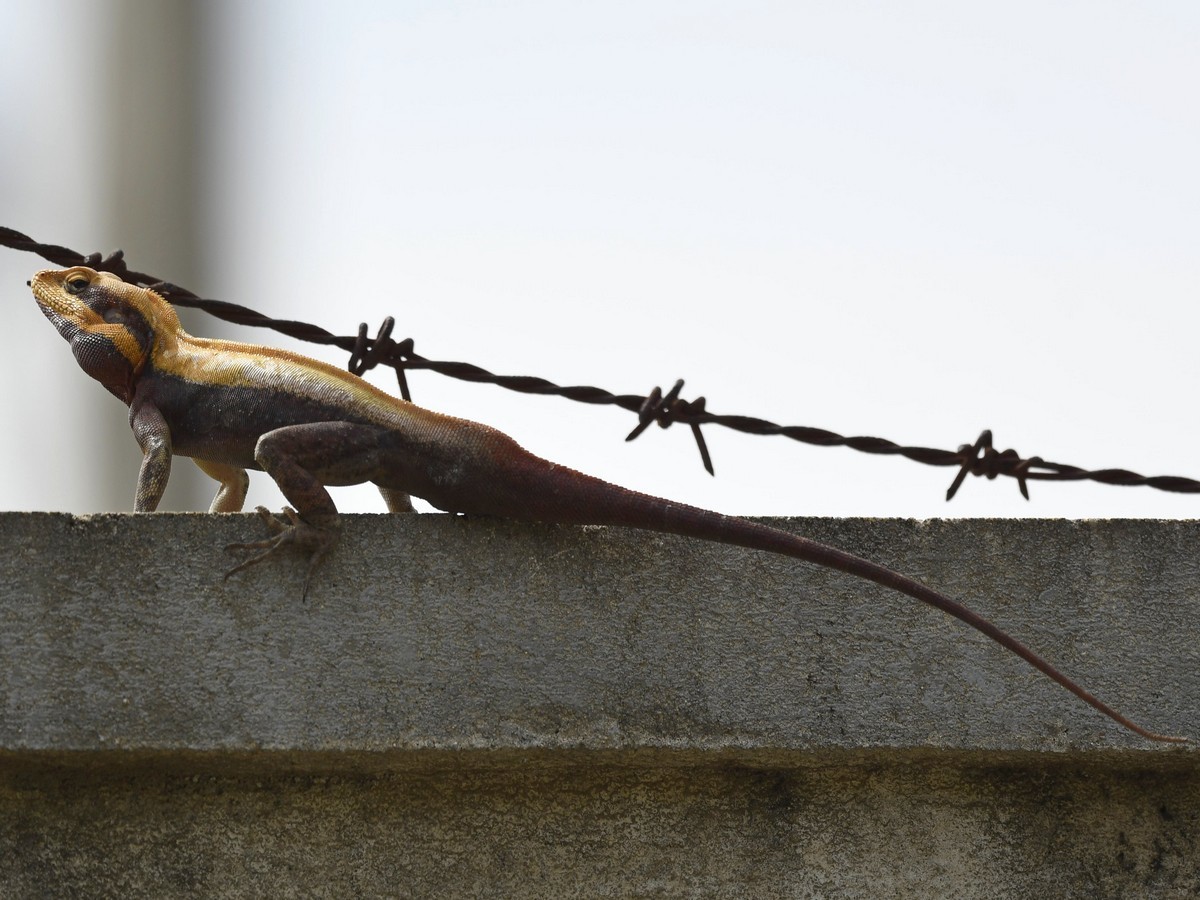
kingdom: Animalia
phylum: Chordata
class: Squamata
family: Agamidae
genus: Psammophilus
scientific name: Psammophilus dorsalis
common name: South indian rock agama
